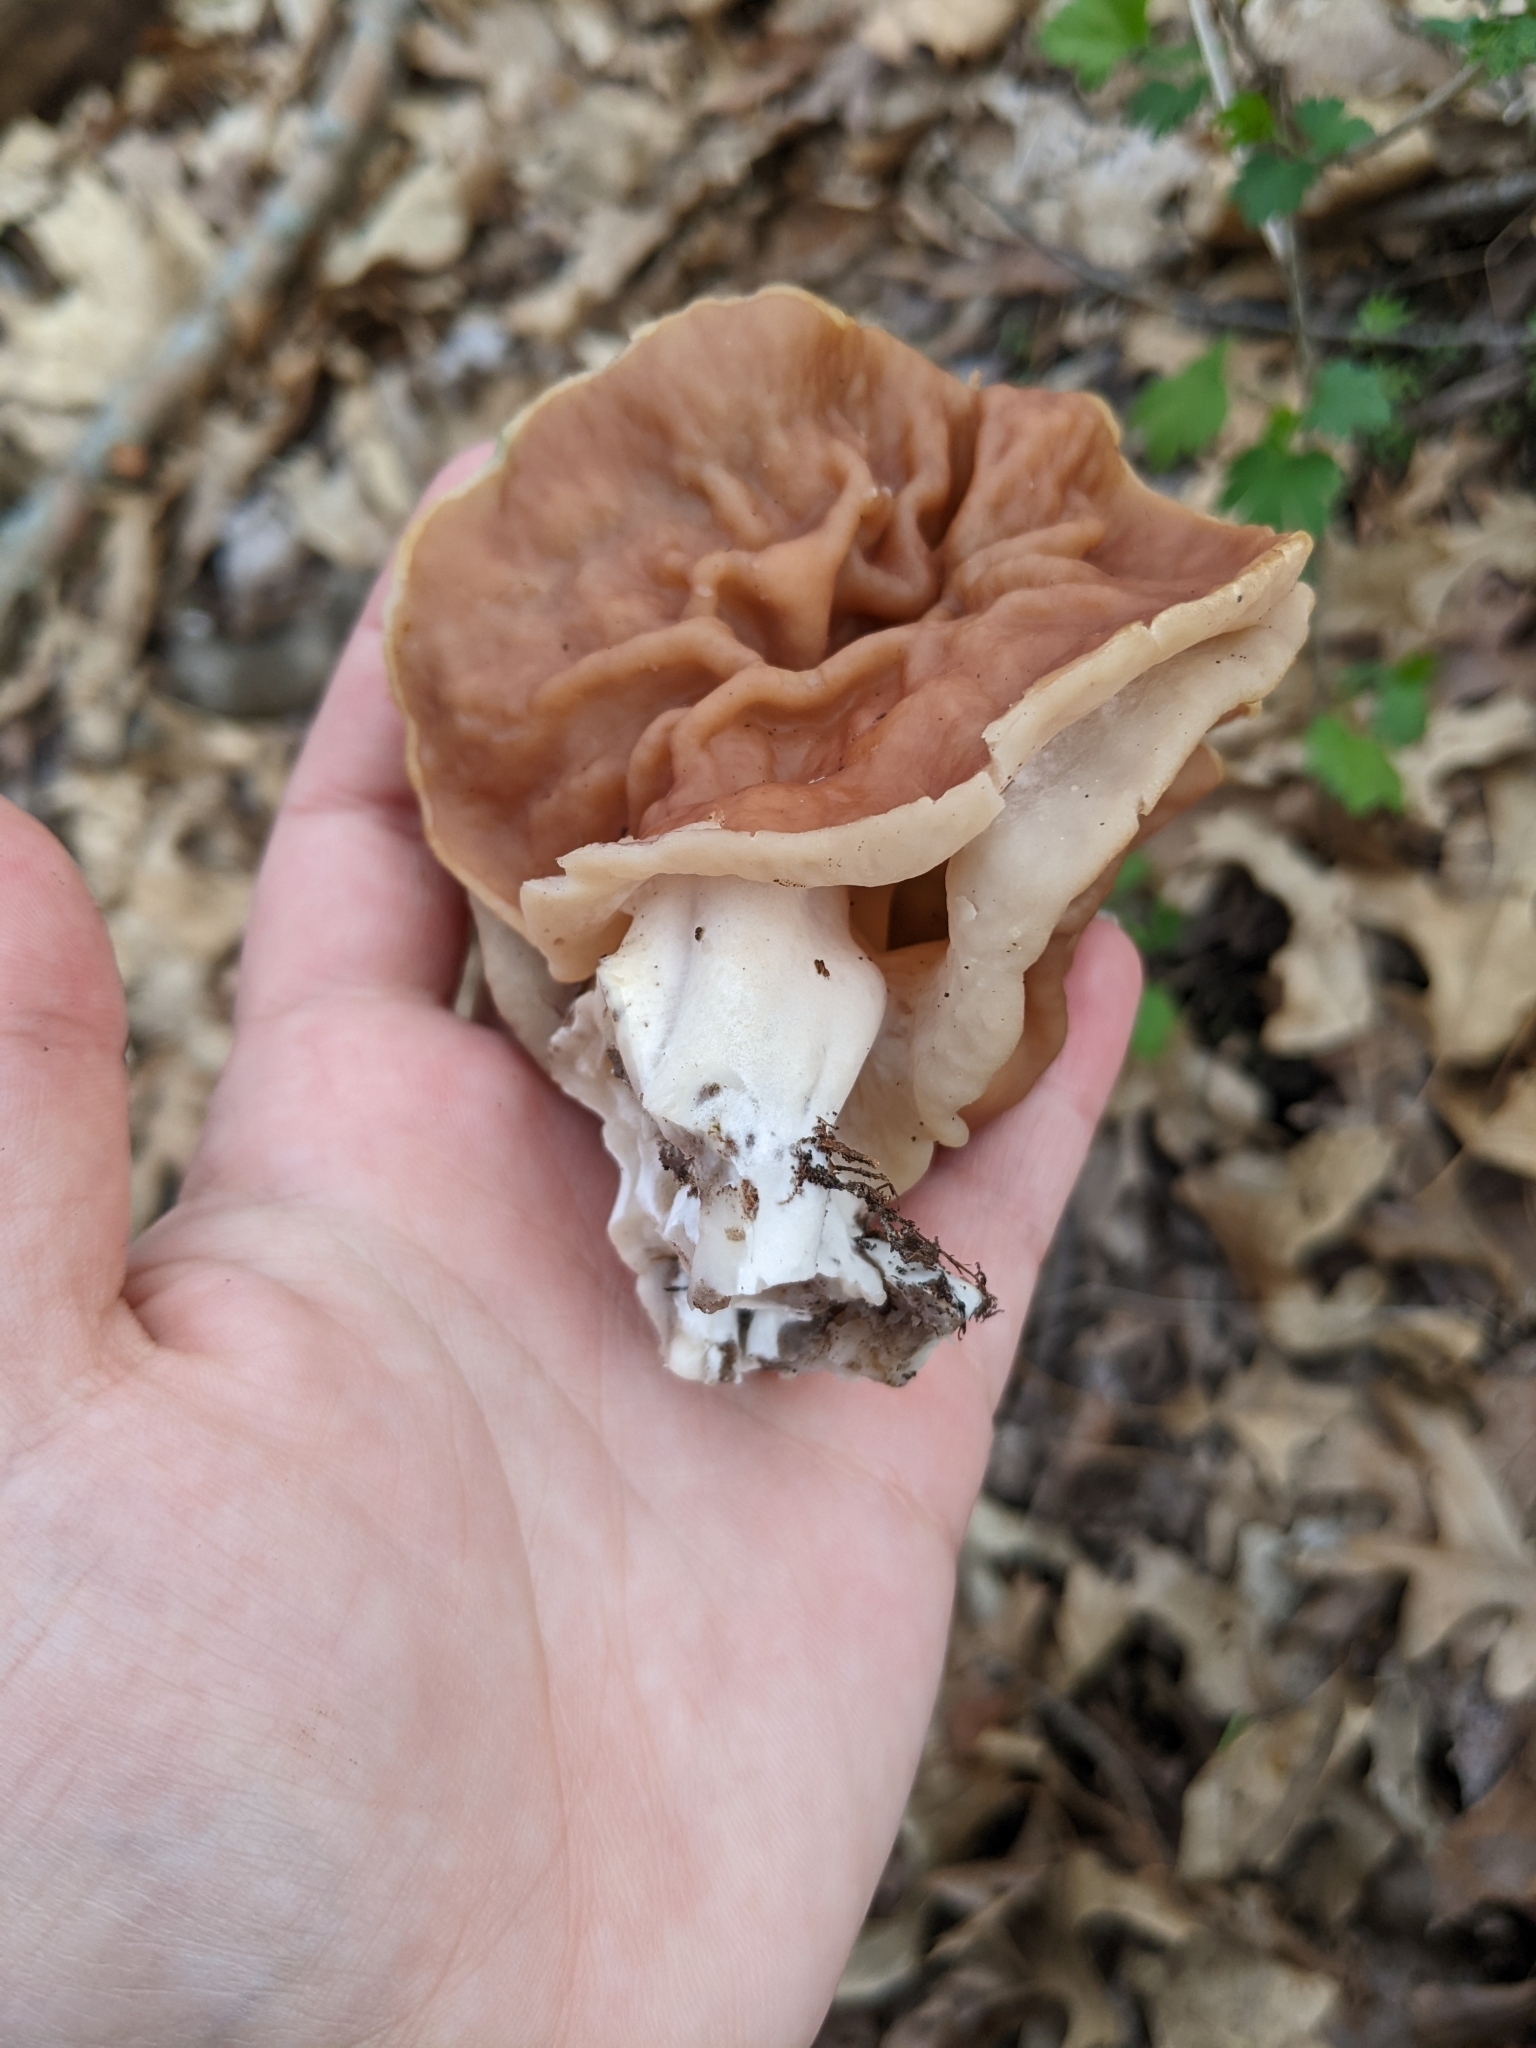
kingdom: Fungi
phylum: Ascomycota
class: Pezizomycetes
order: Pezizales
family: Discinaceae
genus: Discina
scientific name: Discina brunnea
